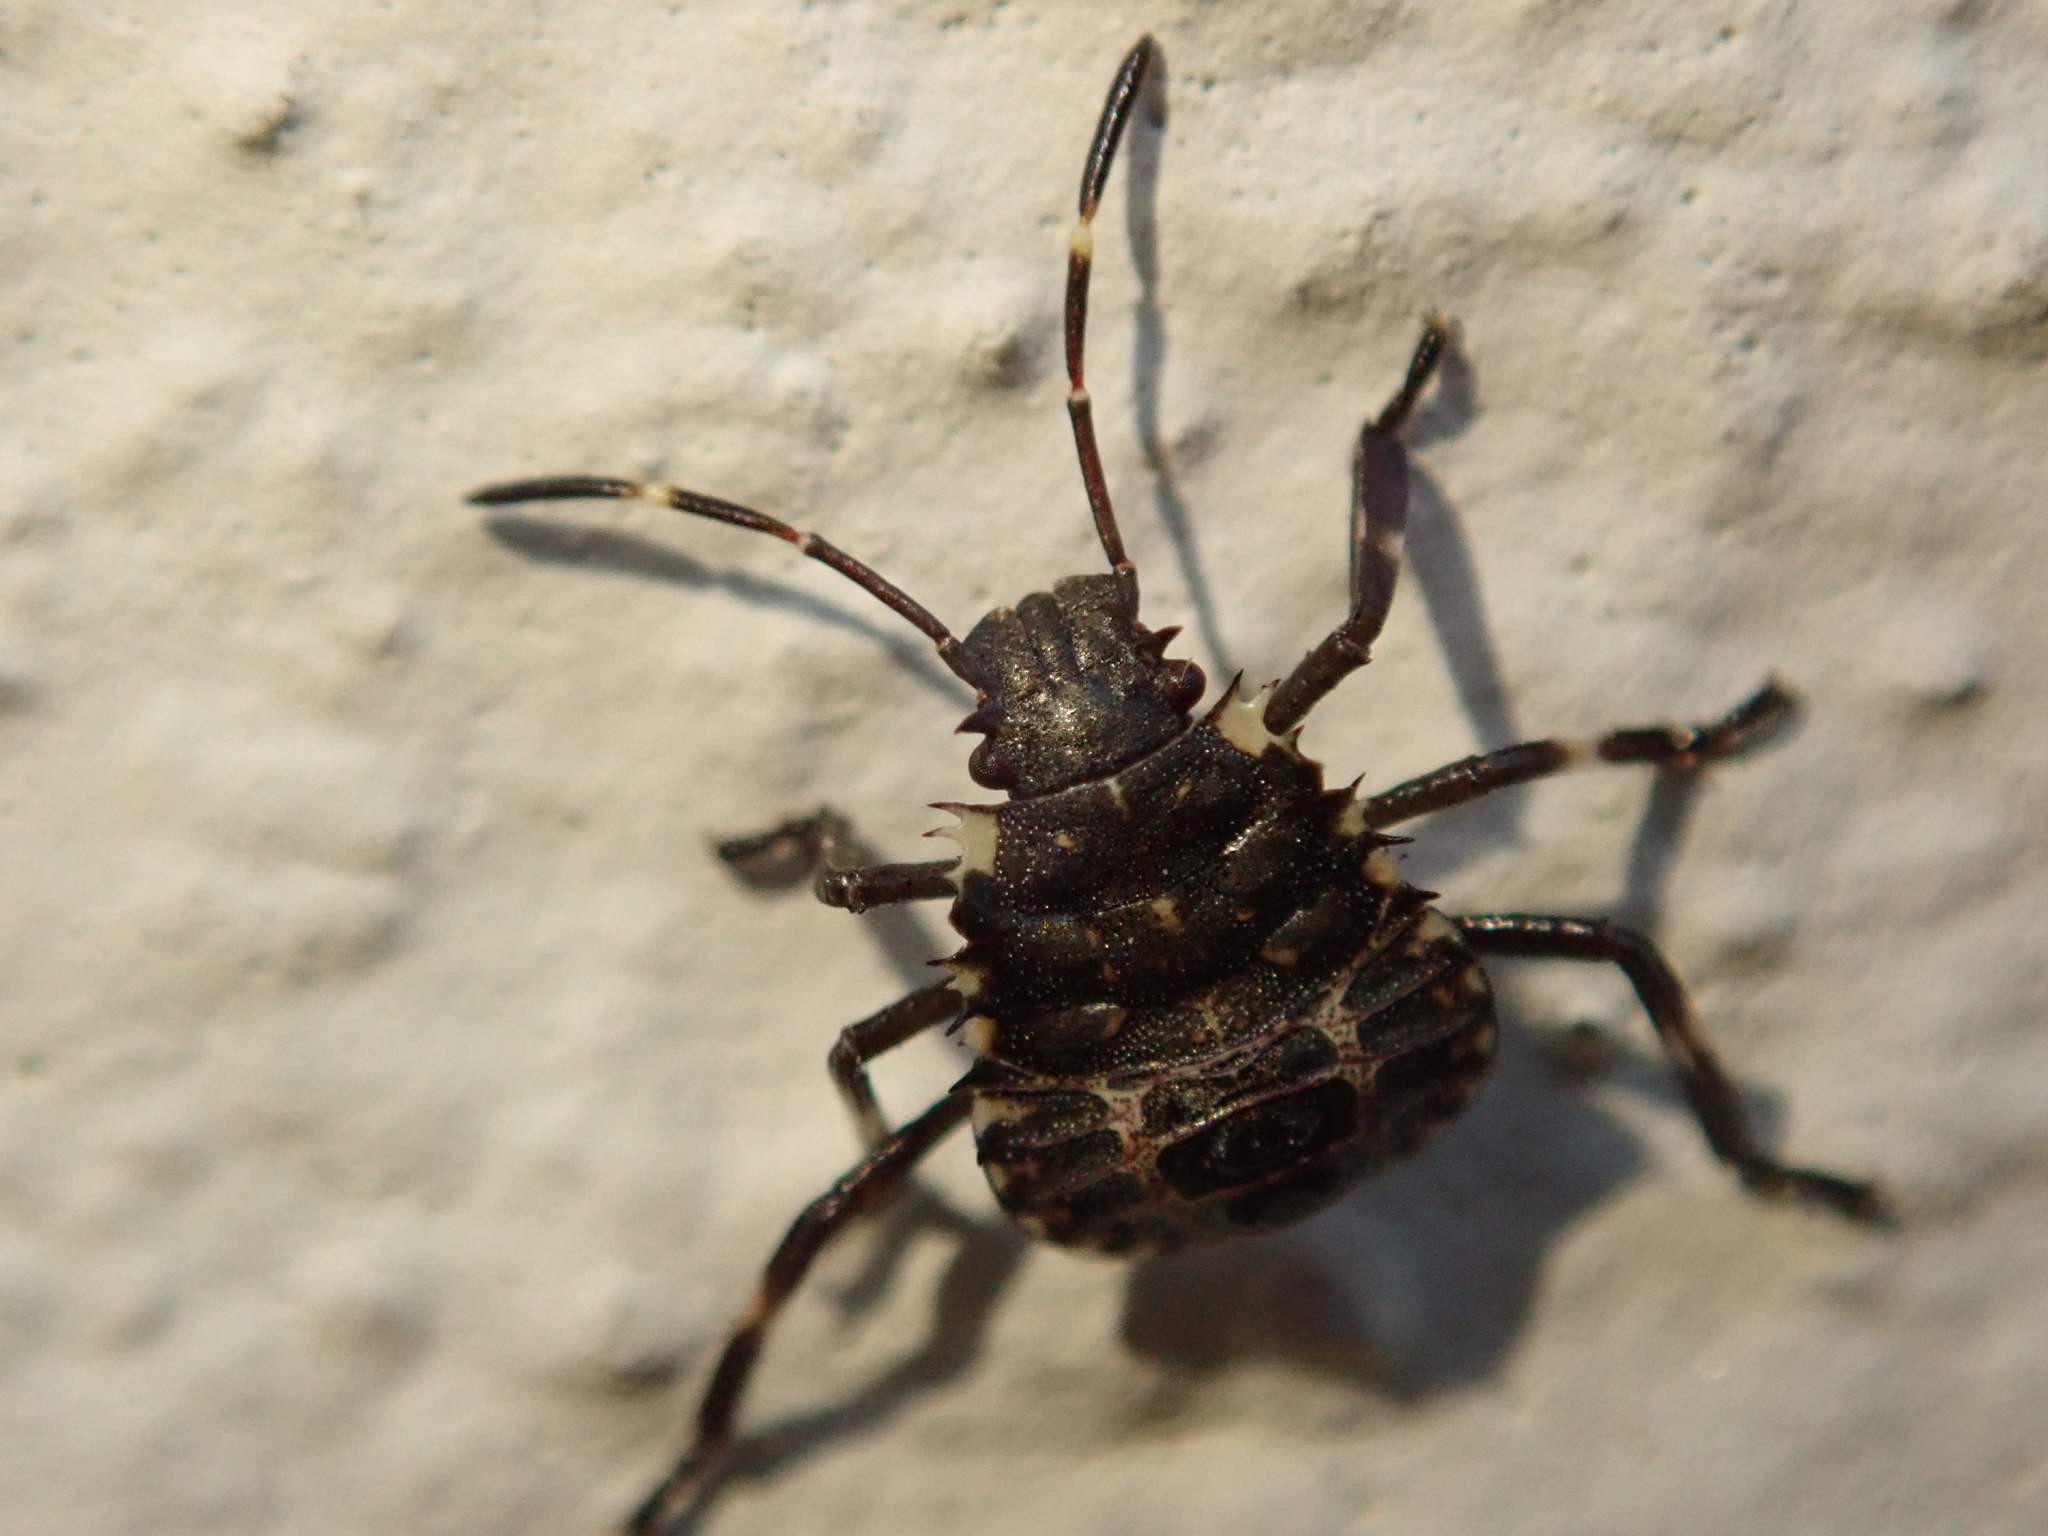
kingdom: Animalia
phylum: Arthropoda
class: Insecta
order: Hemiptera
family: Pentatomidae
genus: Halyomorpha
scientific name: Halyomorpha halys
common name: Brown marmorated stink bug
